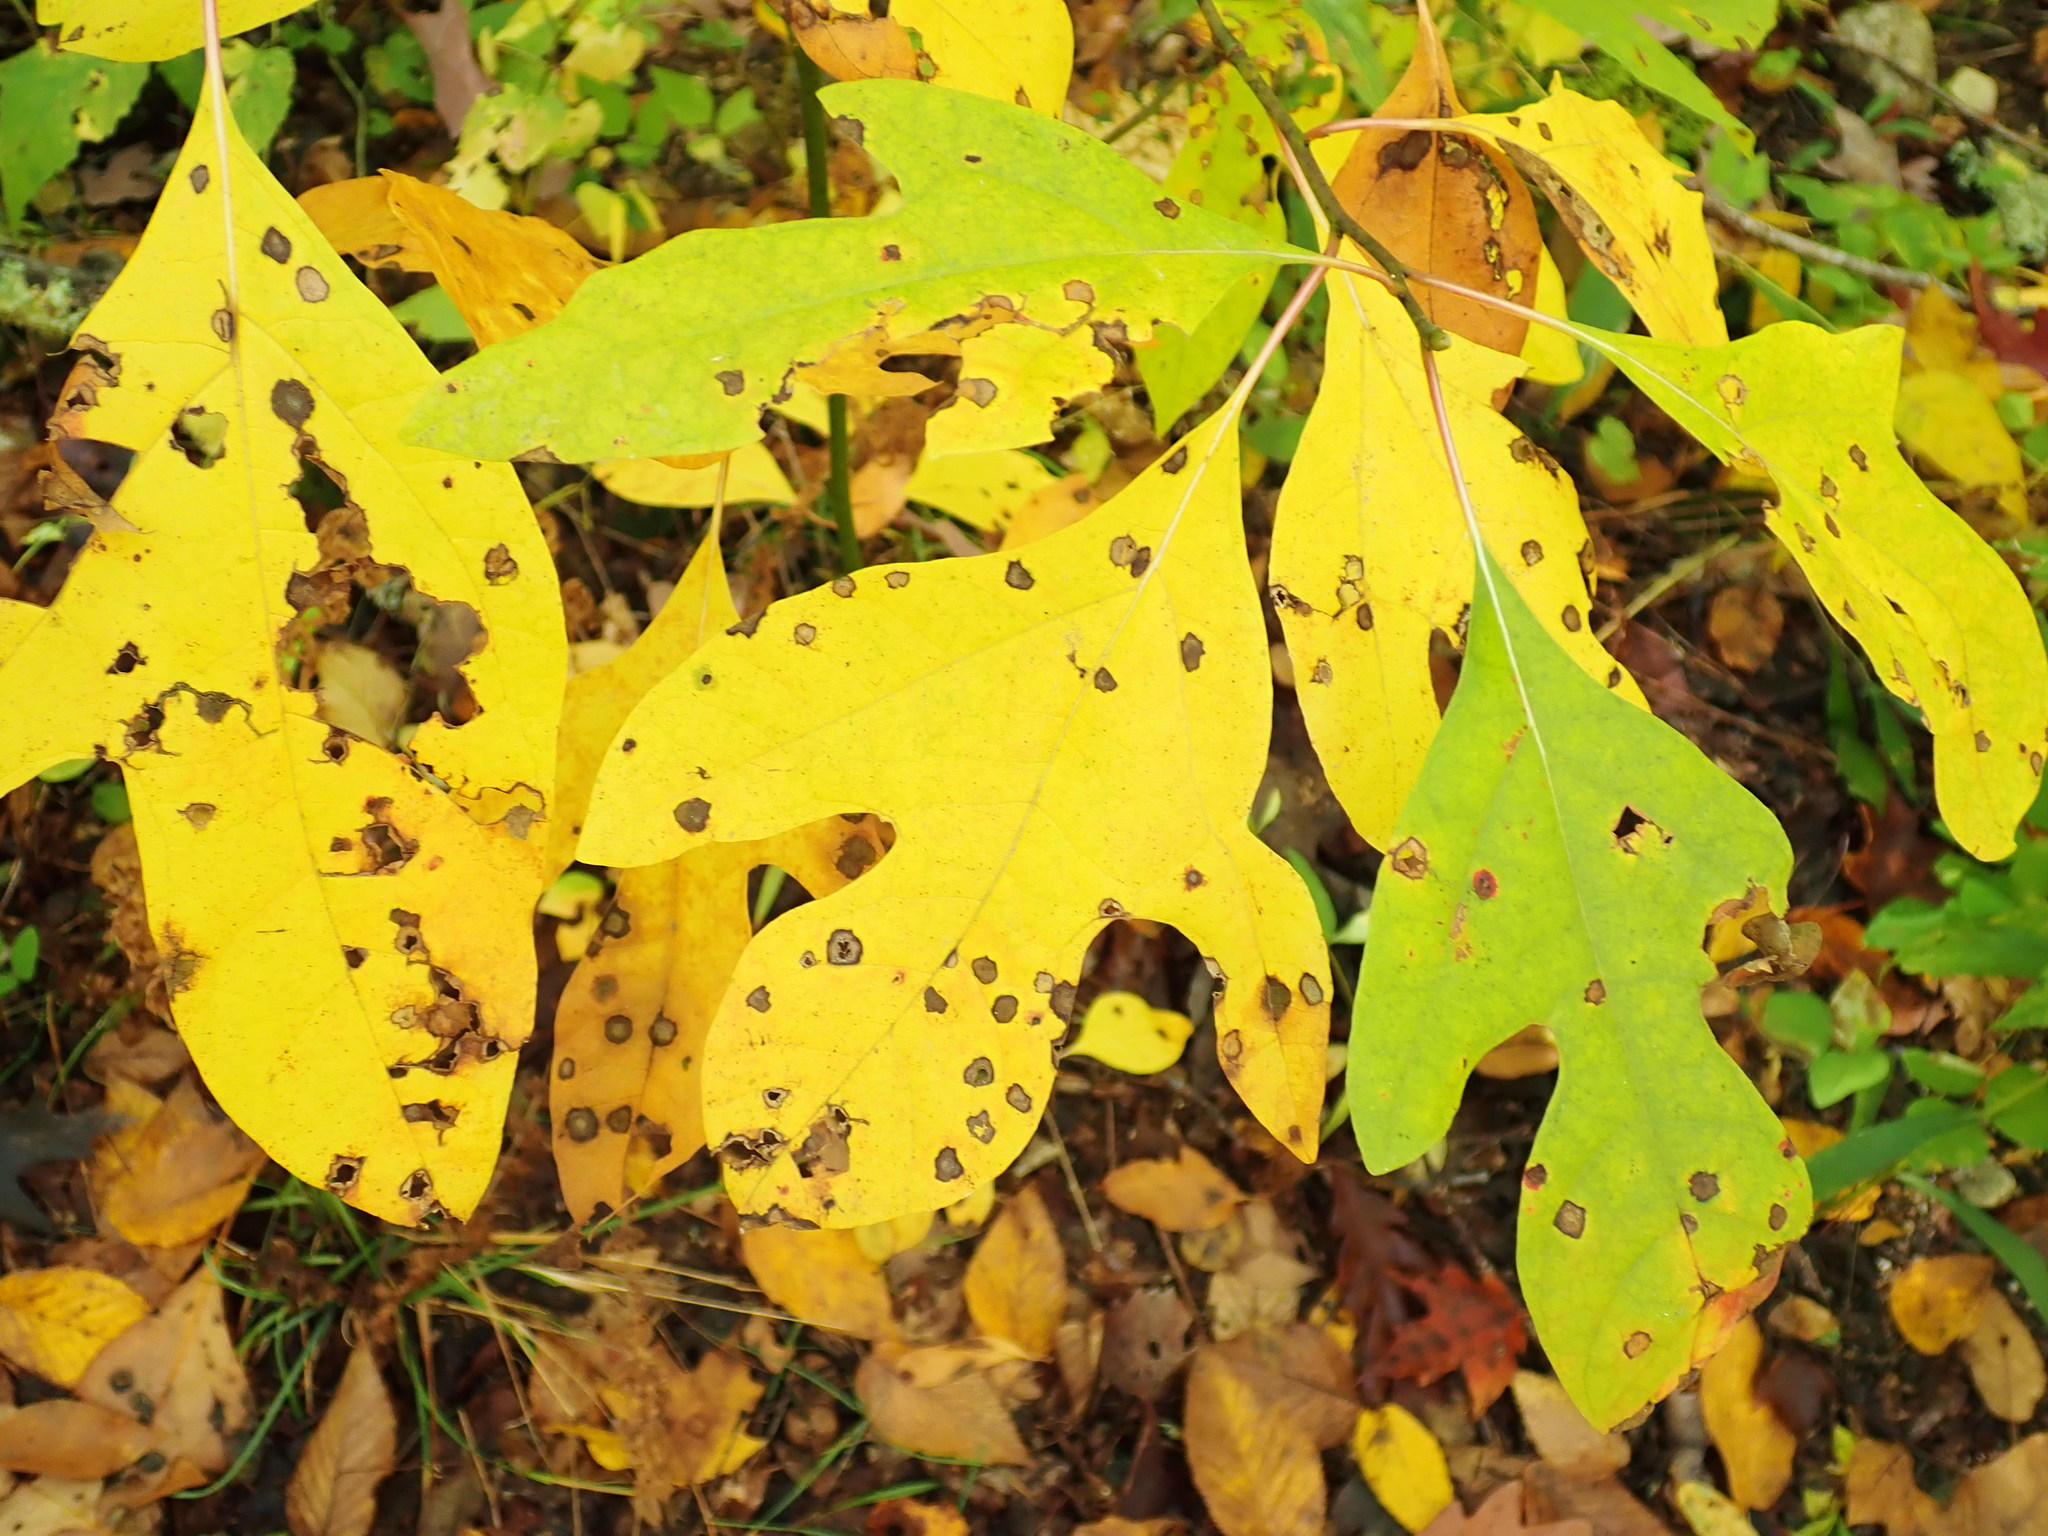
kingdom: Plantae
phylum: Tracheophyta
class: Magnoliopsida
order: Laurales
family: Lauraceae
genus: Sassafras
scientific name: Sassafras albidum
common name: Sassafras
